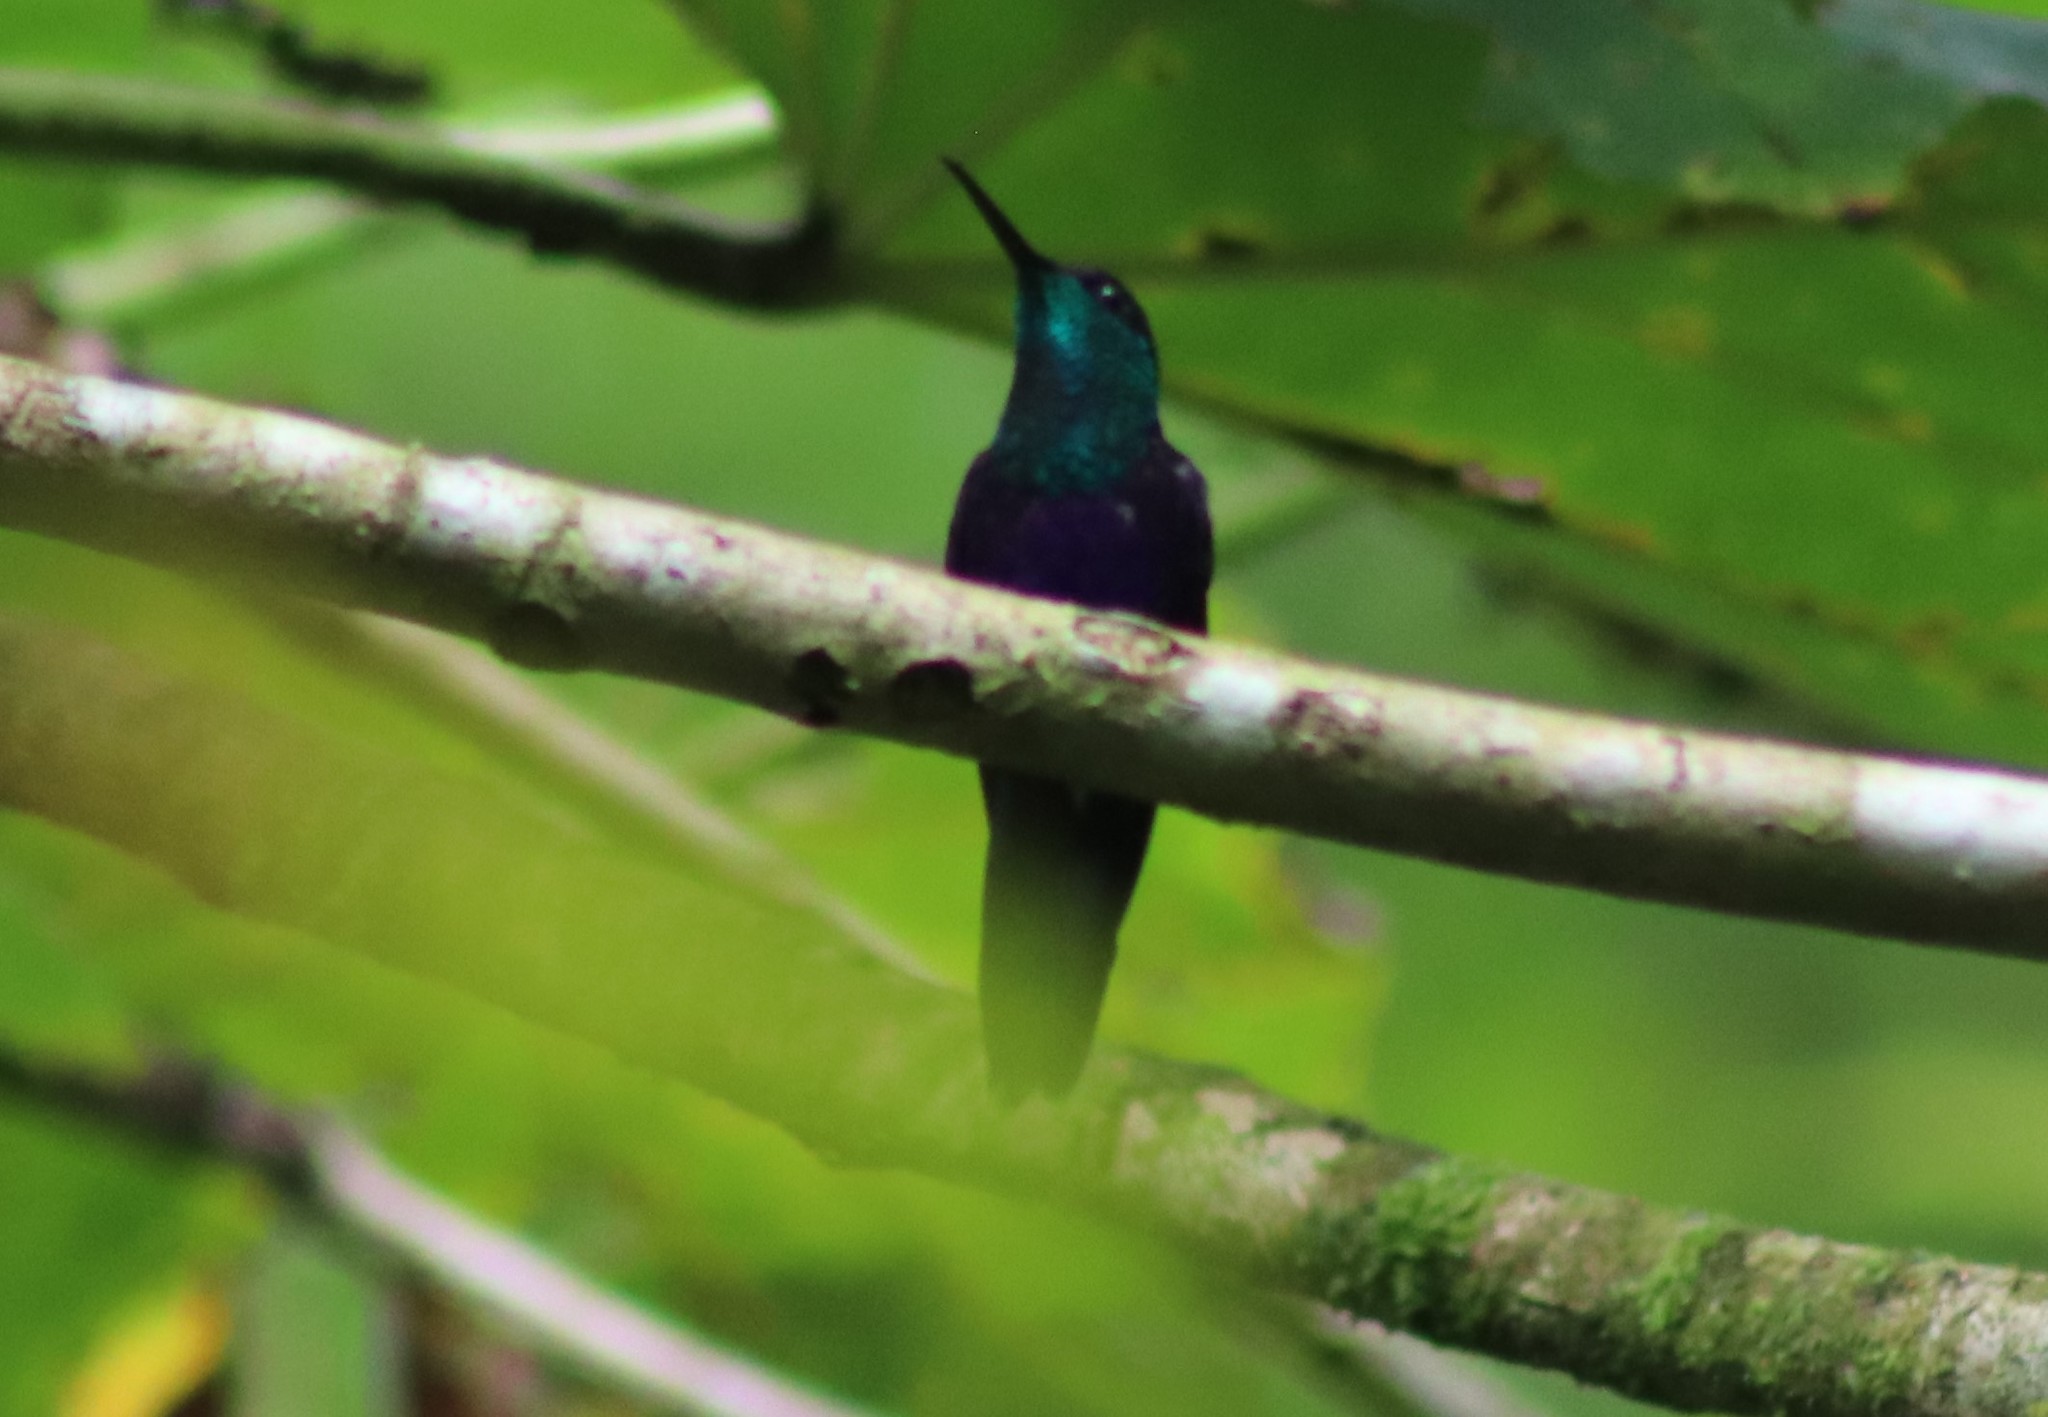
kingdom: Animalia
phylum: Chordata
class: Aves
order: Apodiformes
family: Trochilidae
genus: Thalurania
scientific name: Thalurania colombica
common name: Crowned woodnymph
